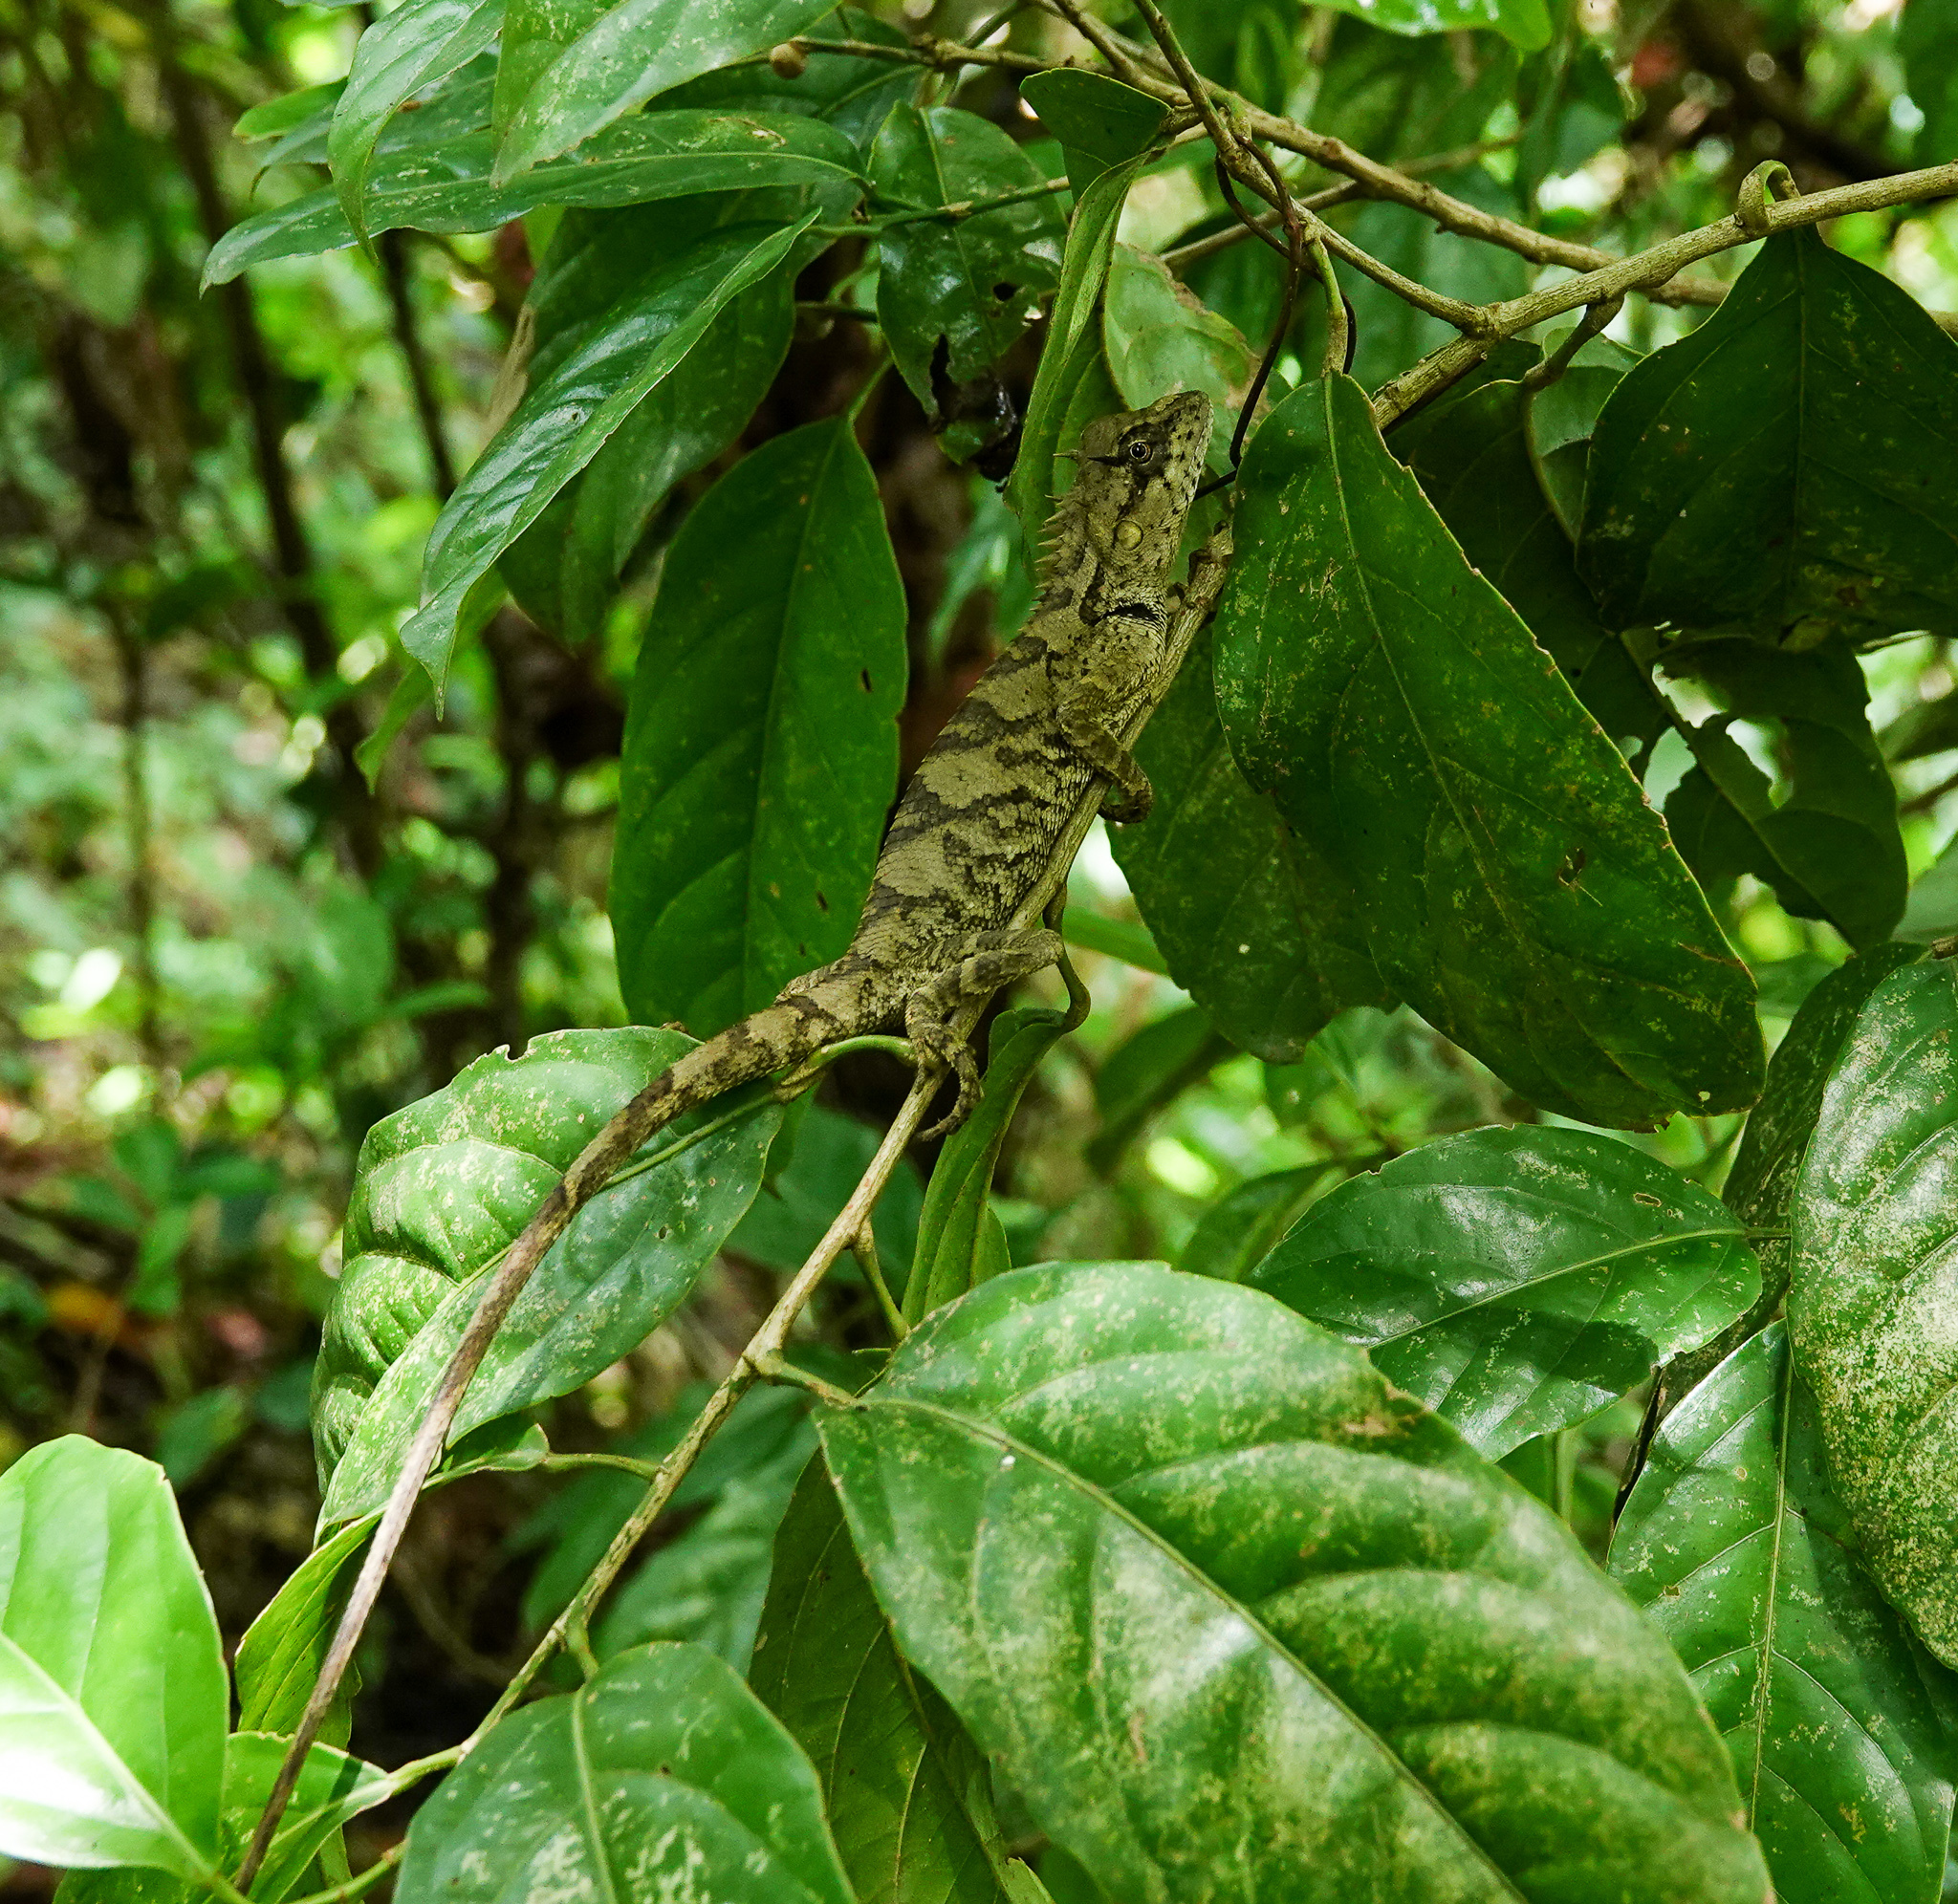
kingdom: Animalia
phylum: Chordata
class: Squamata
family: Agamidae
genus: Calotes
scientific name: Calotes emma
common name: Thailand bloodsucker
